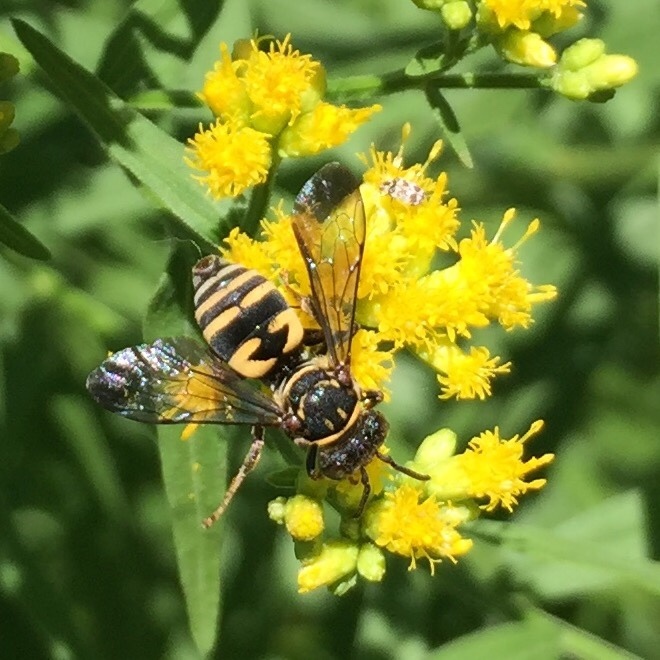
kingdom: Animalia
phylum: Arthropoda
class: Insecta
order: Hymenoptera
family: Apidae
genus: Triepeolus
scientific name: Triepeolus lunatus
